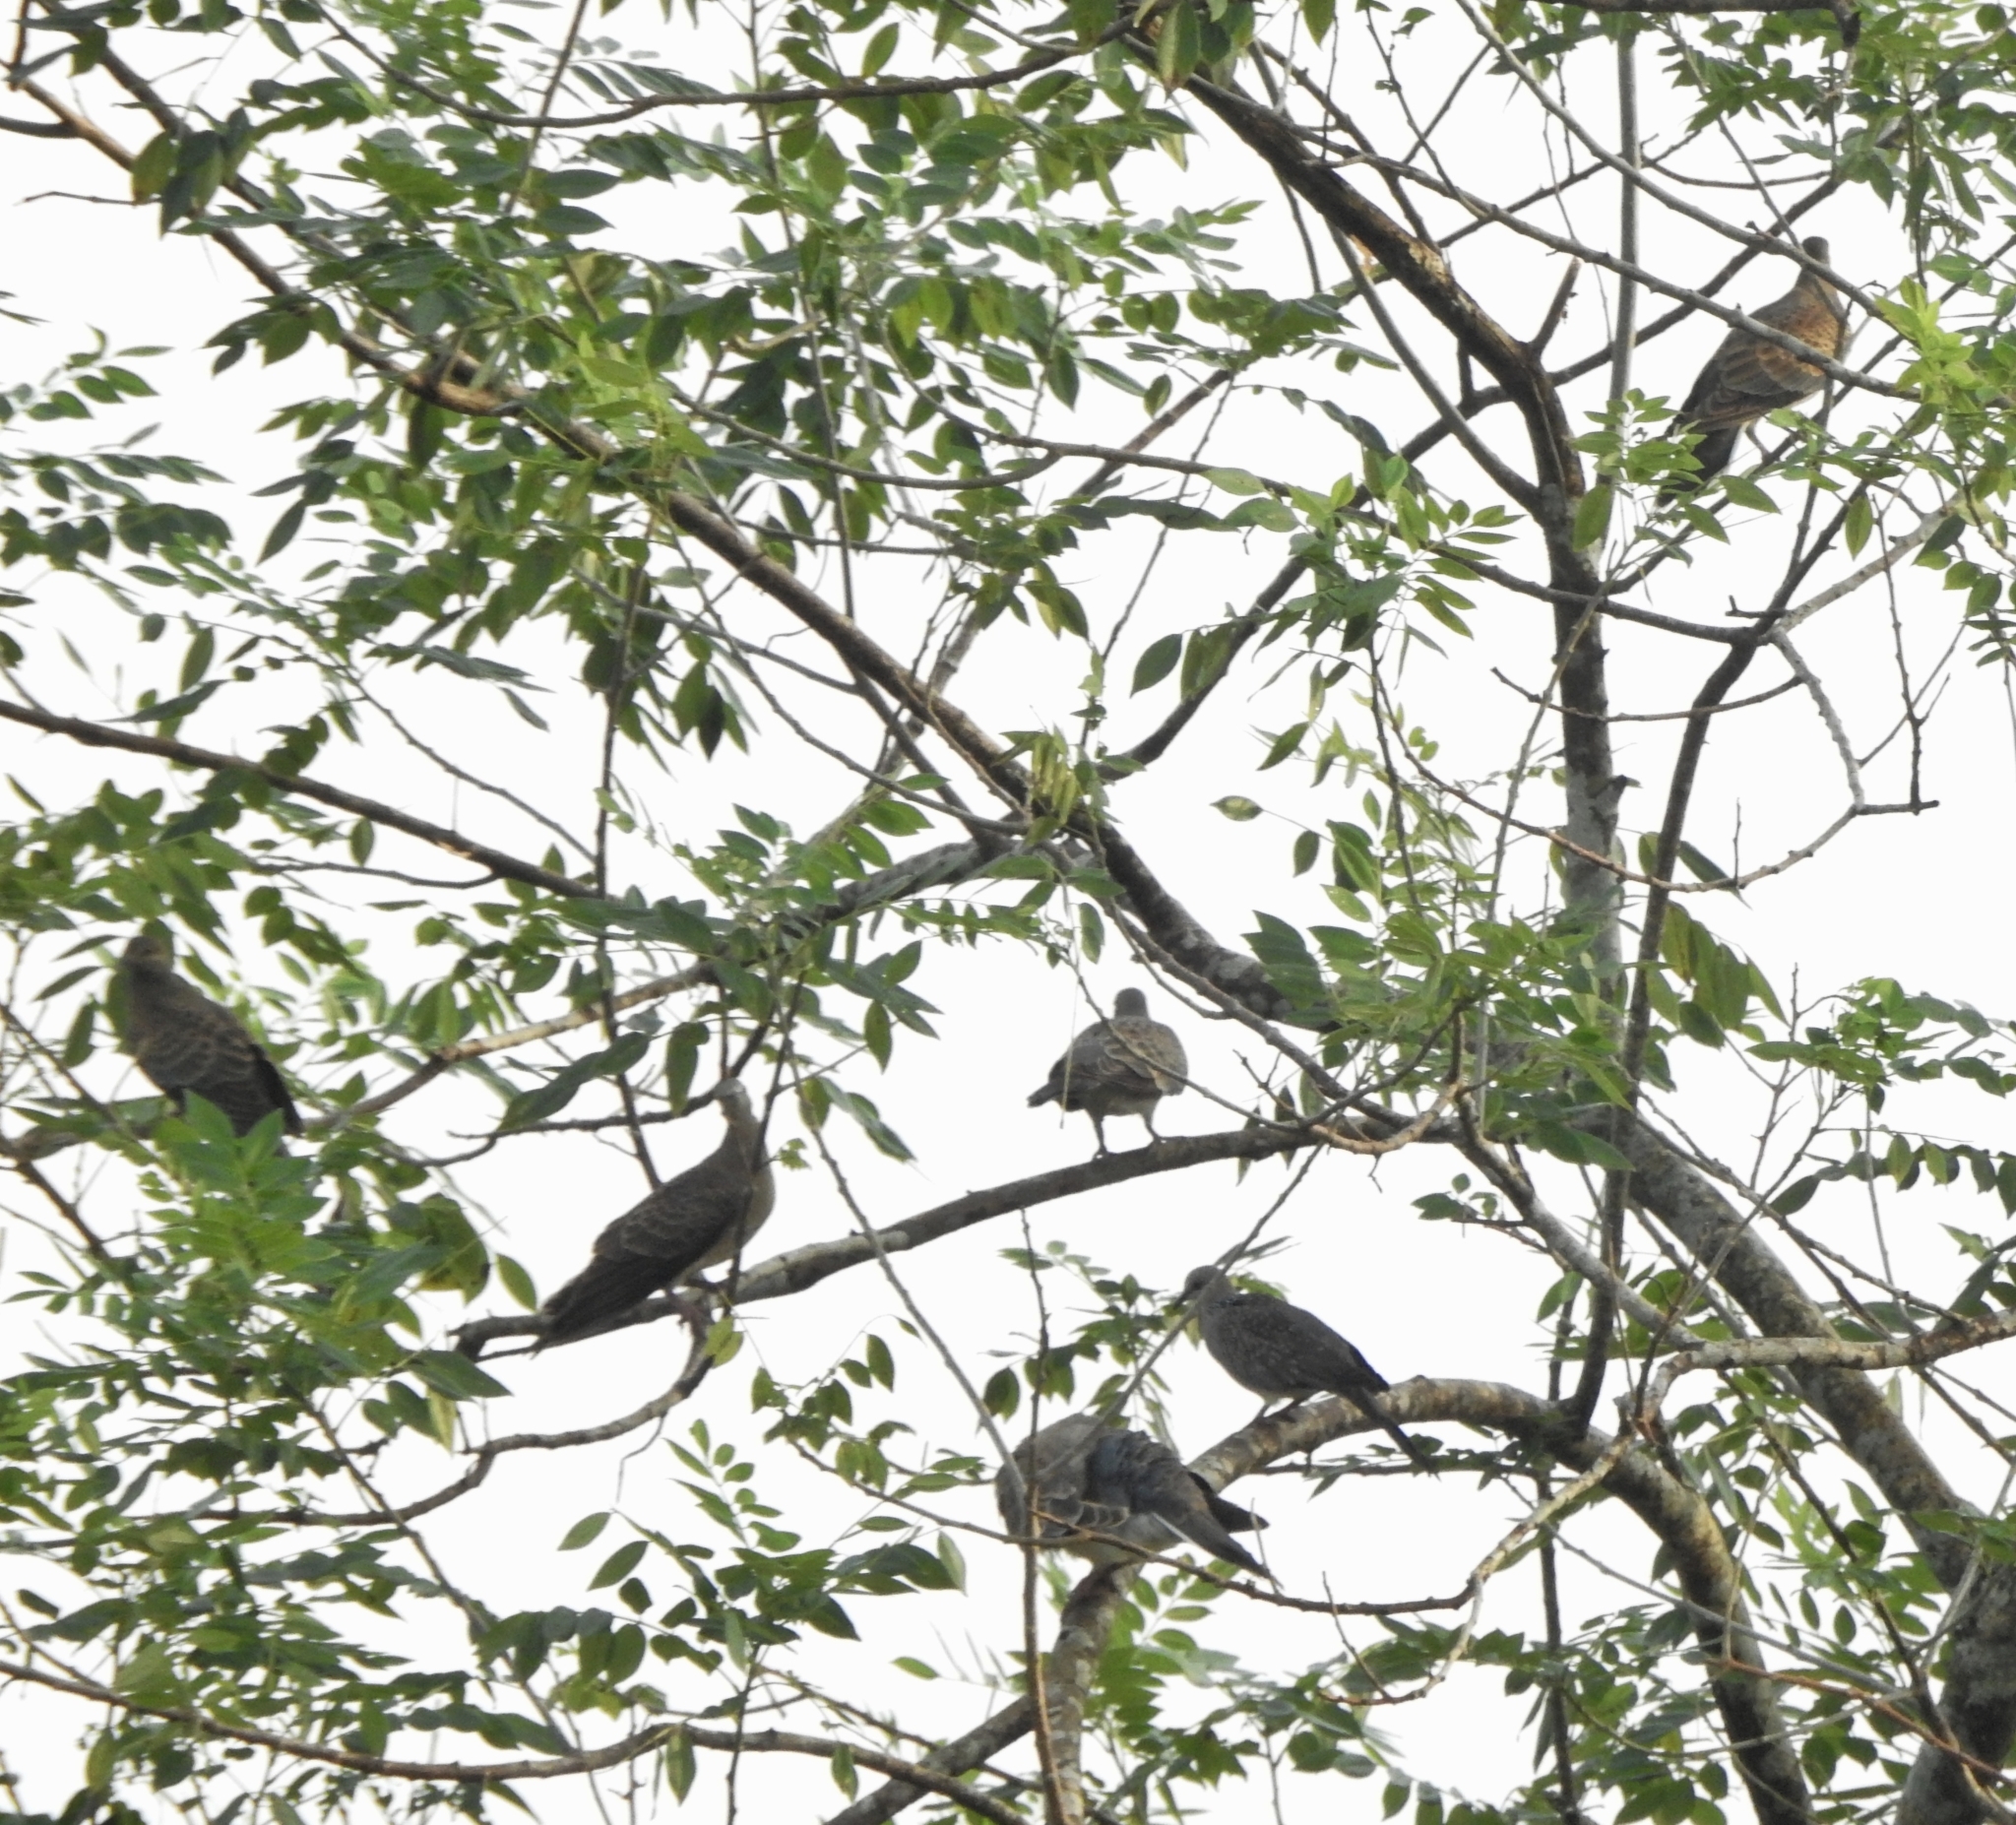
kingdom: Animalia
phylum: Chordata
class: Aves
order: Columbiformes
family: Columbidae
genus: Streptopelia
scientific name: Streptopelia orientalis
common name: Oriental turtle dove
